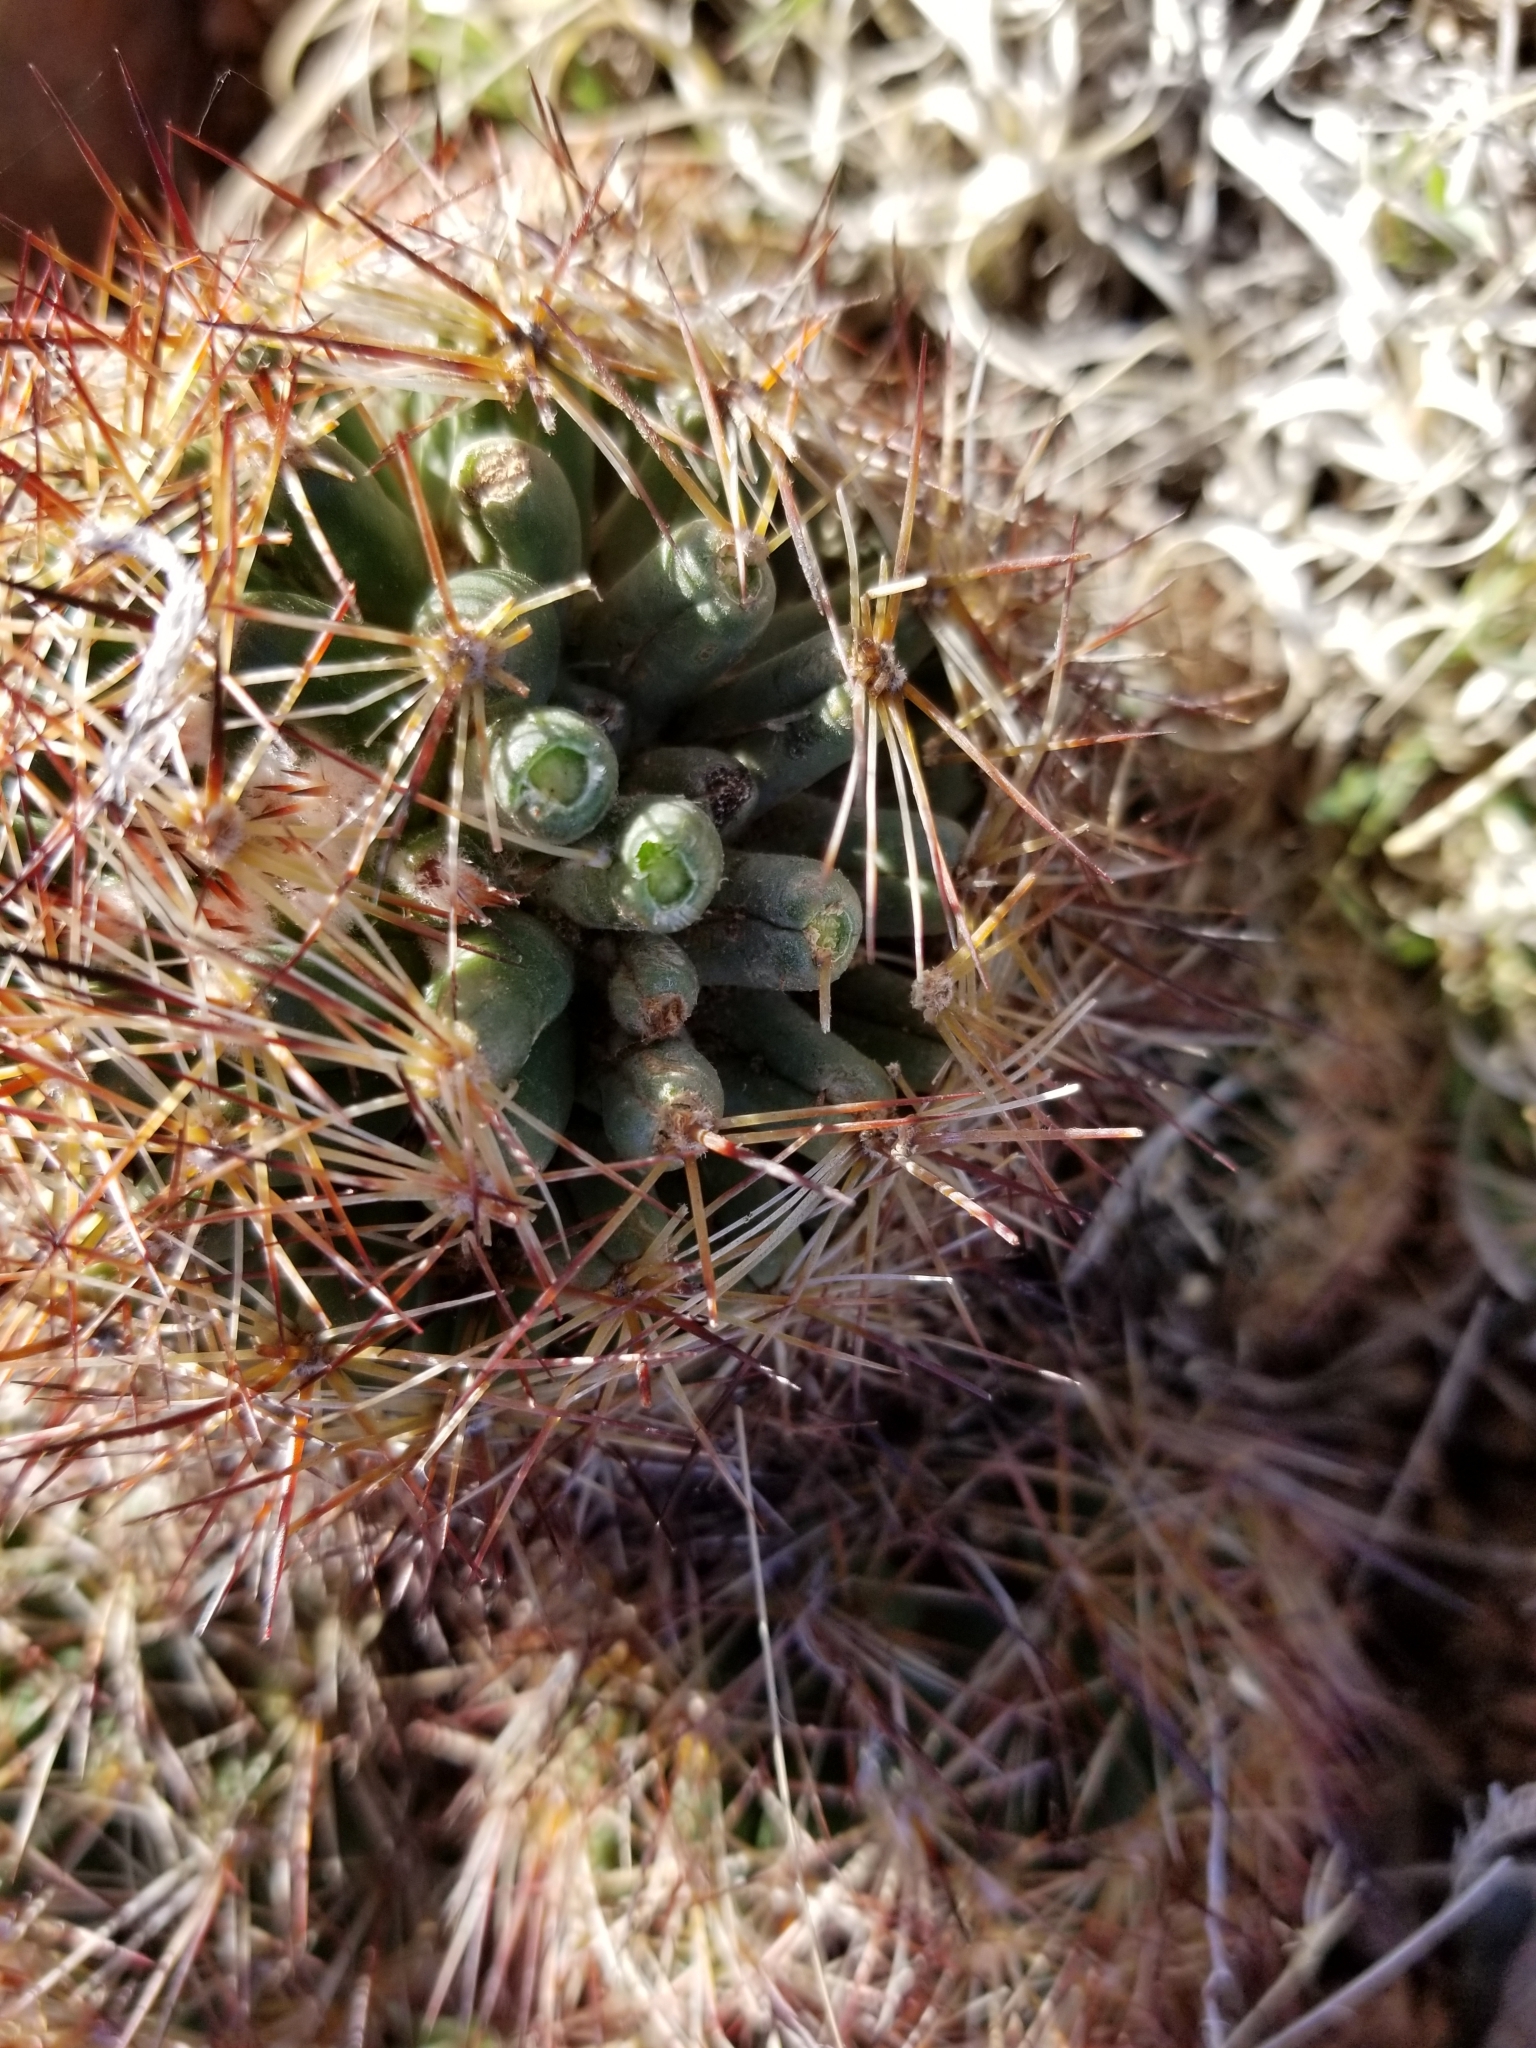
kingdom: Plantae
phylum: Tracheophyta
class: Magnoliopsida
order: Caryophyllales
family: Cactaceae
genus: Pelecyphora
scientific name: Pelecyphora vivipara
